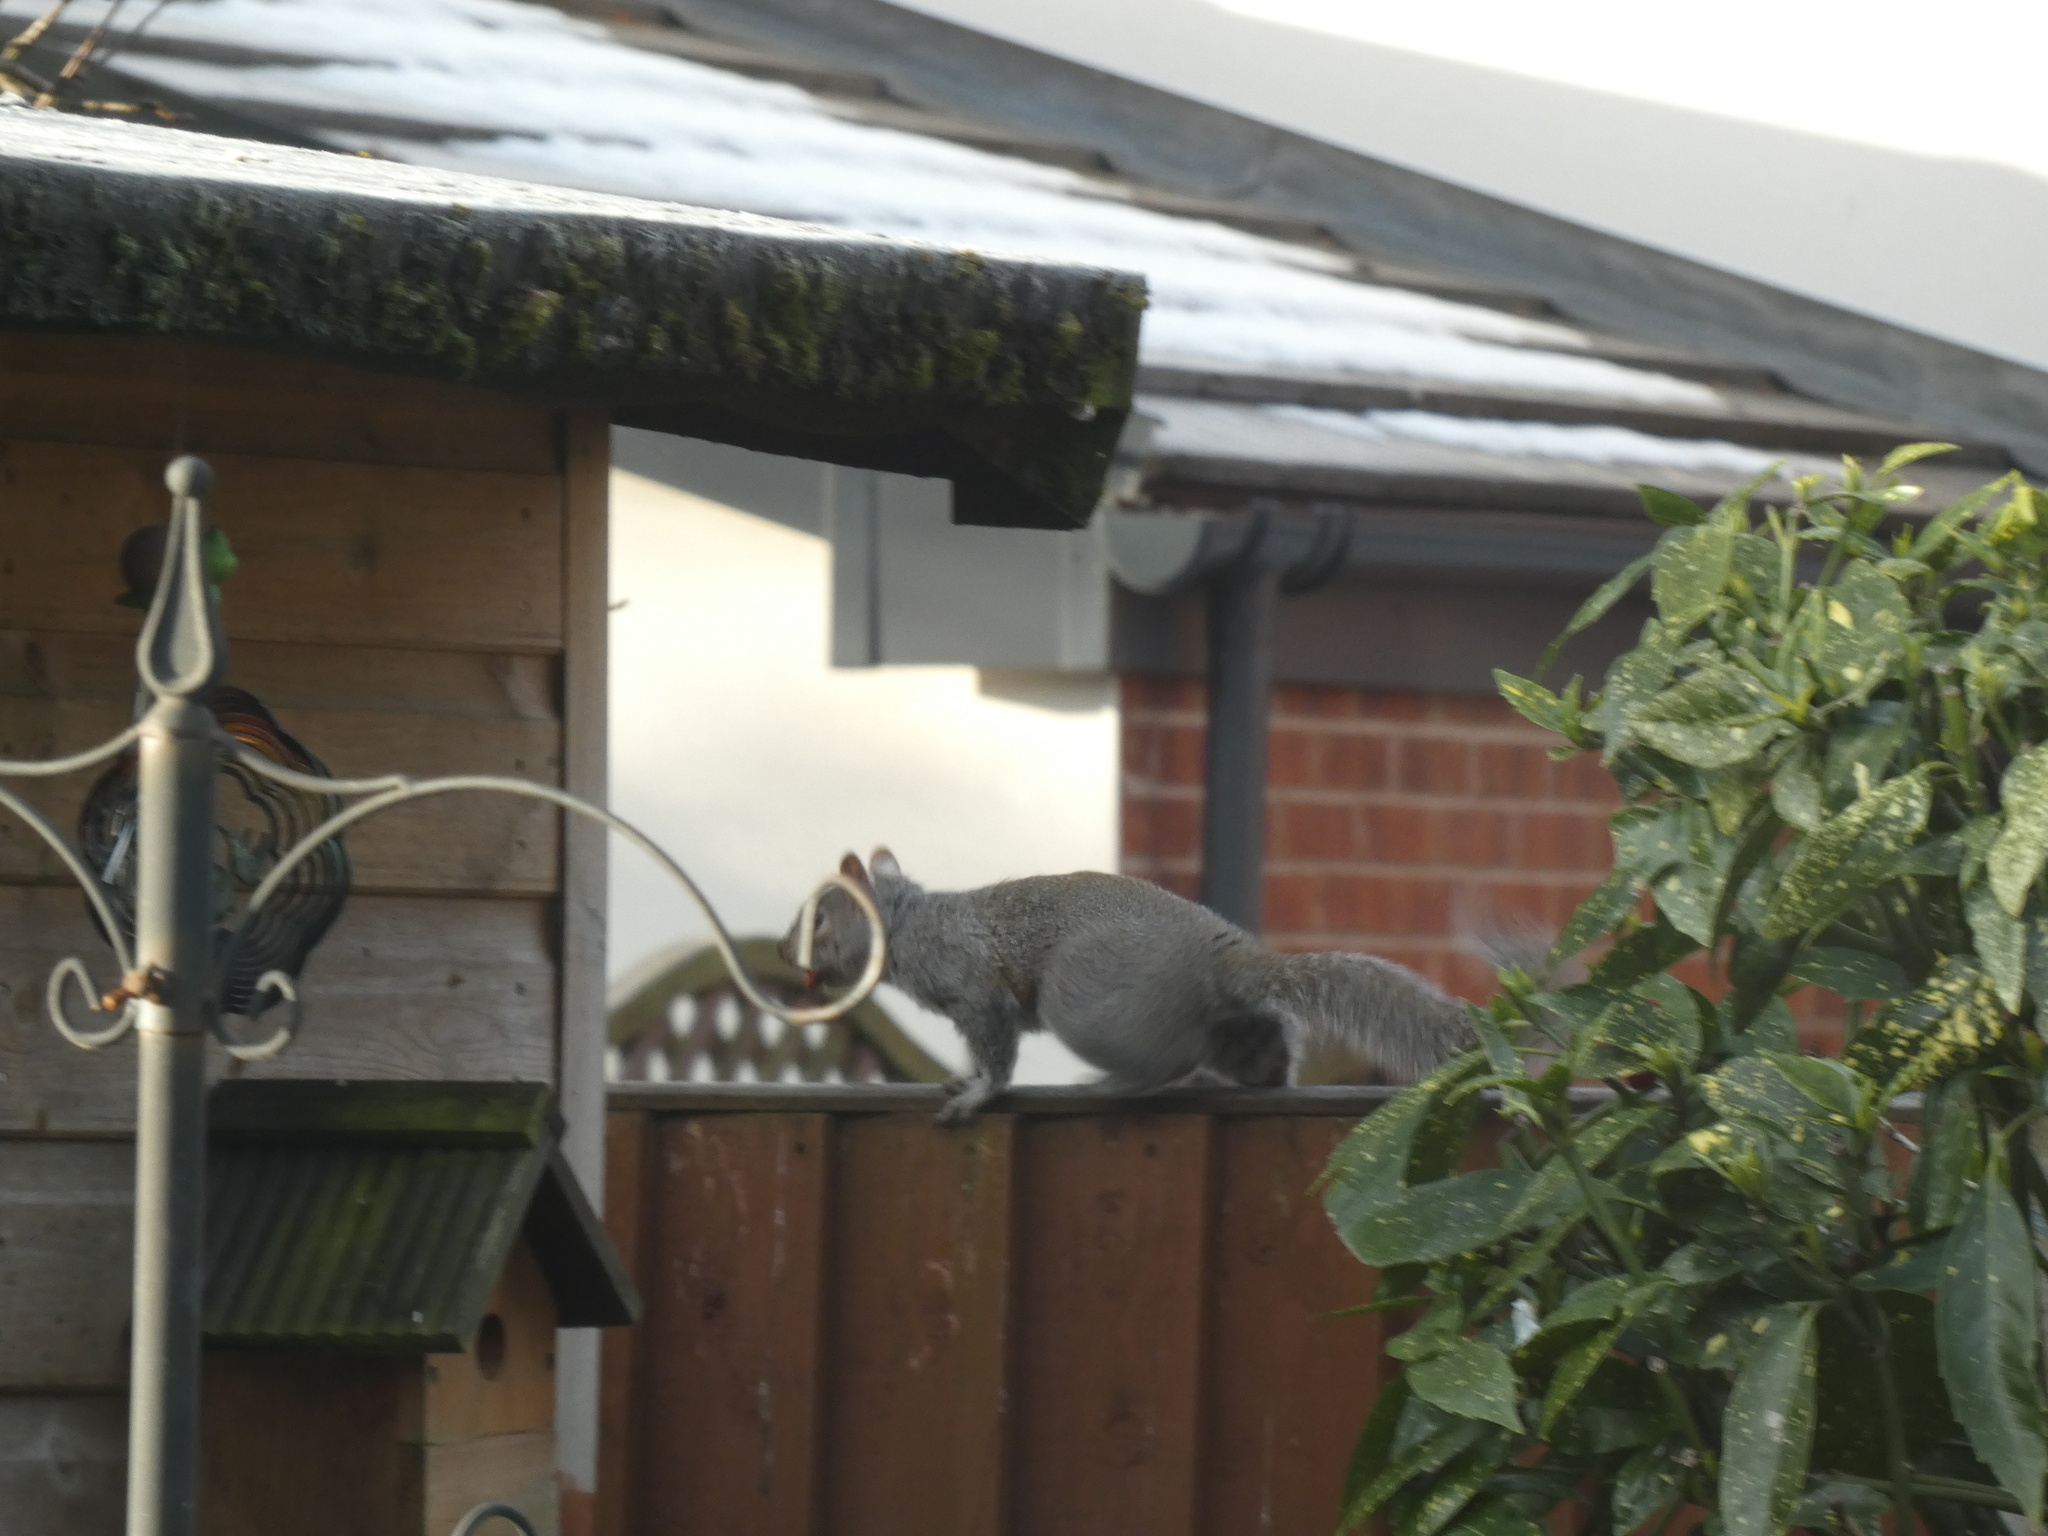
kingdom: Animalia
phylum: Chordata
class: Mammalia
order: Rodentia
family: Sciuridae
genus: Sciurus
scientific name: Sciurus carolinensis
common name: Eastern gray squirrel
